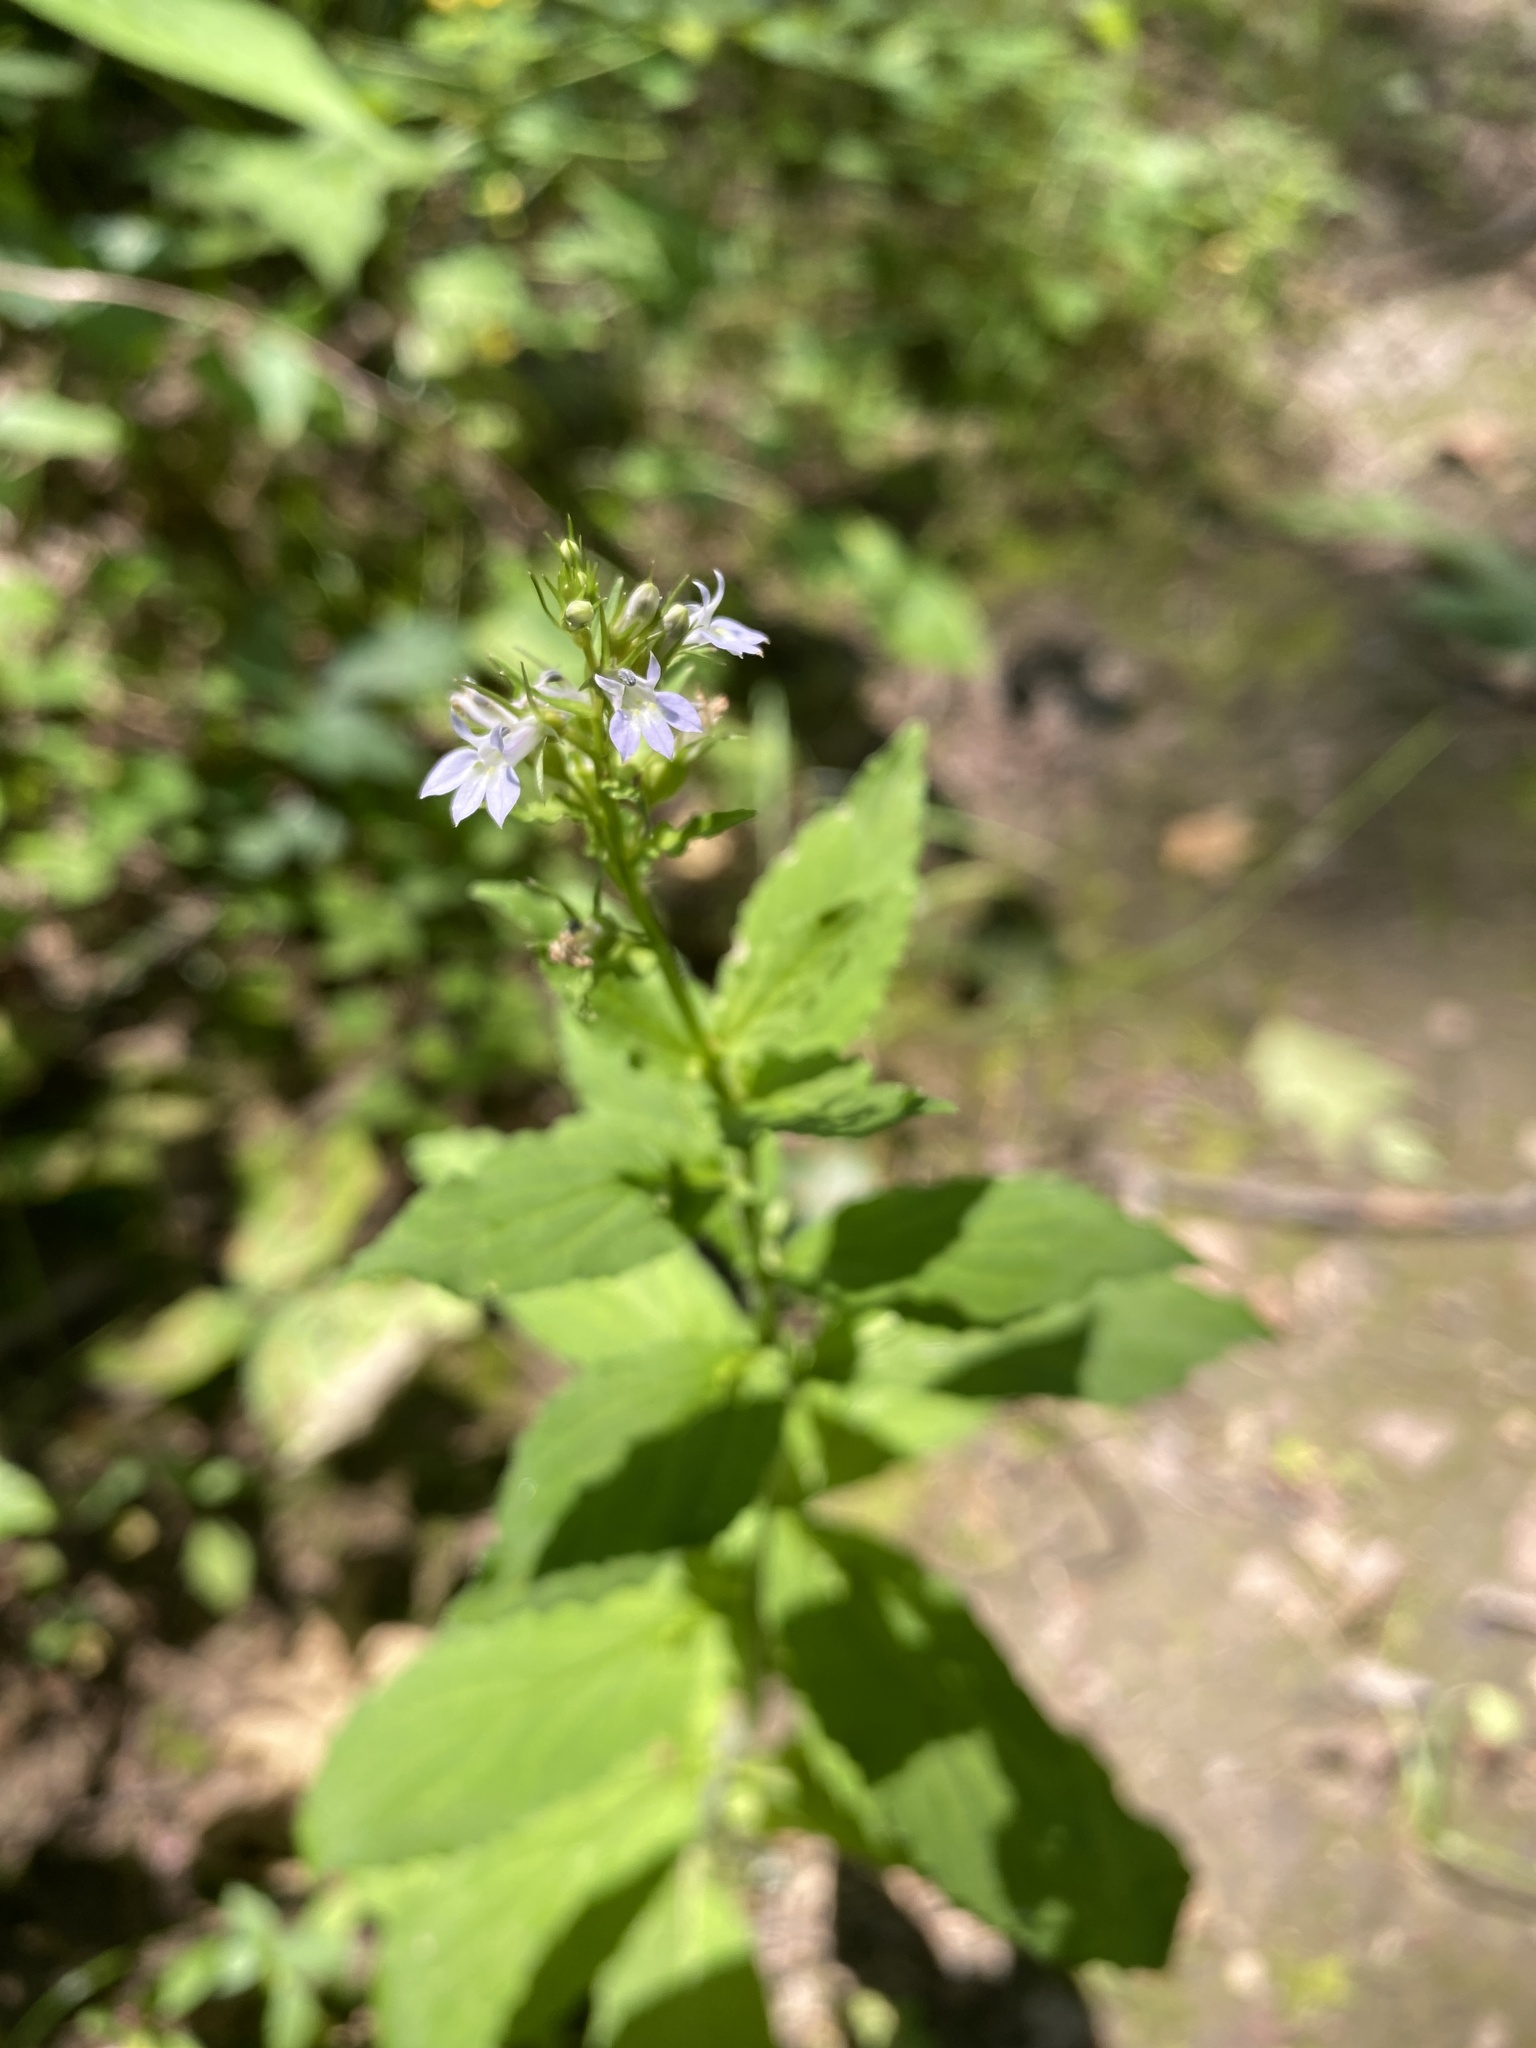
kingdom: Plantae
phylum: Tracheophyta
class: Magnoliopsida
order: Asterales
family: Campanulaceae
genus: Lobelia
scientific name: Lobelia inflata
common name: Indian tobacco
